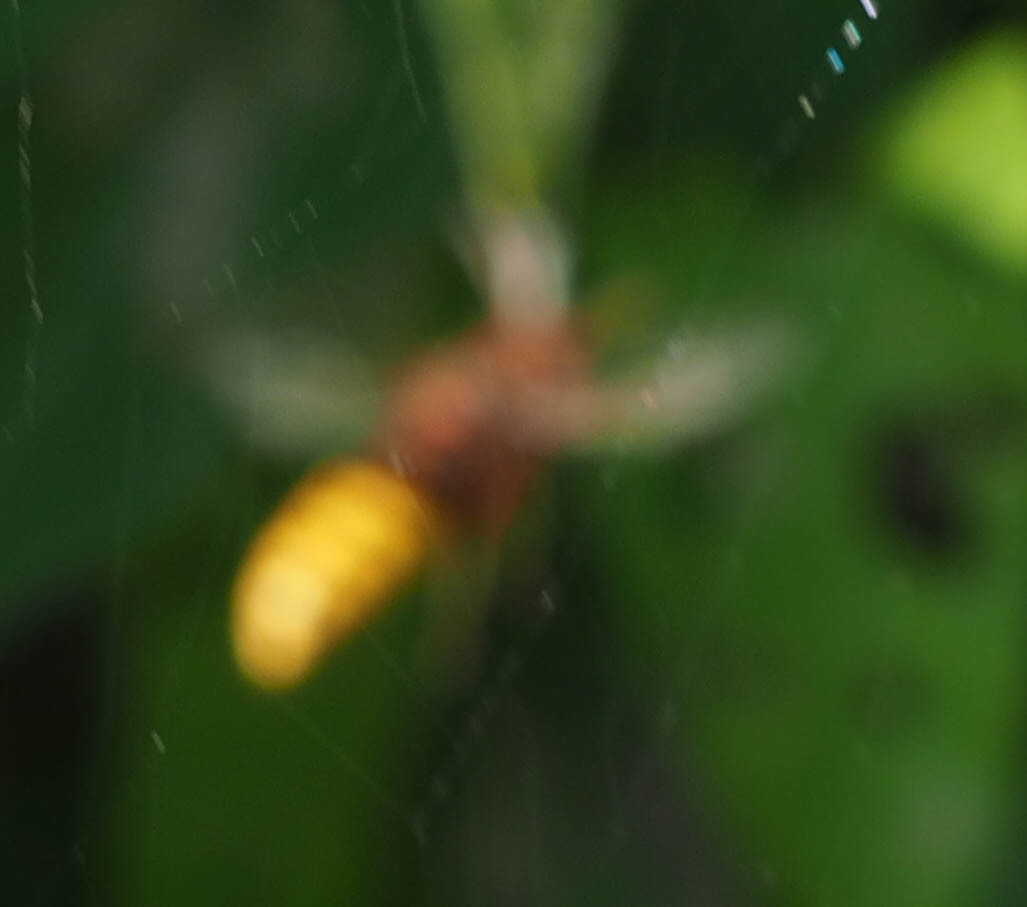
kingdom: Animalia
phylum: Arthropoda
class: Insecta
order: Hymenoptera
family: Vespidae
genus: Vespa
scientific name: Vespa crabro
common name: Hornet
